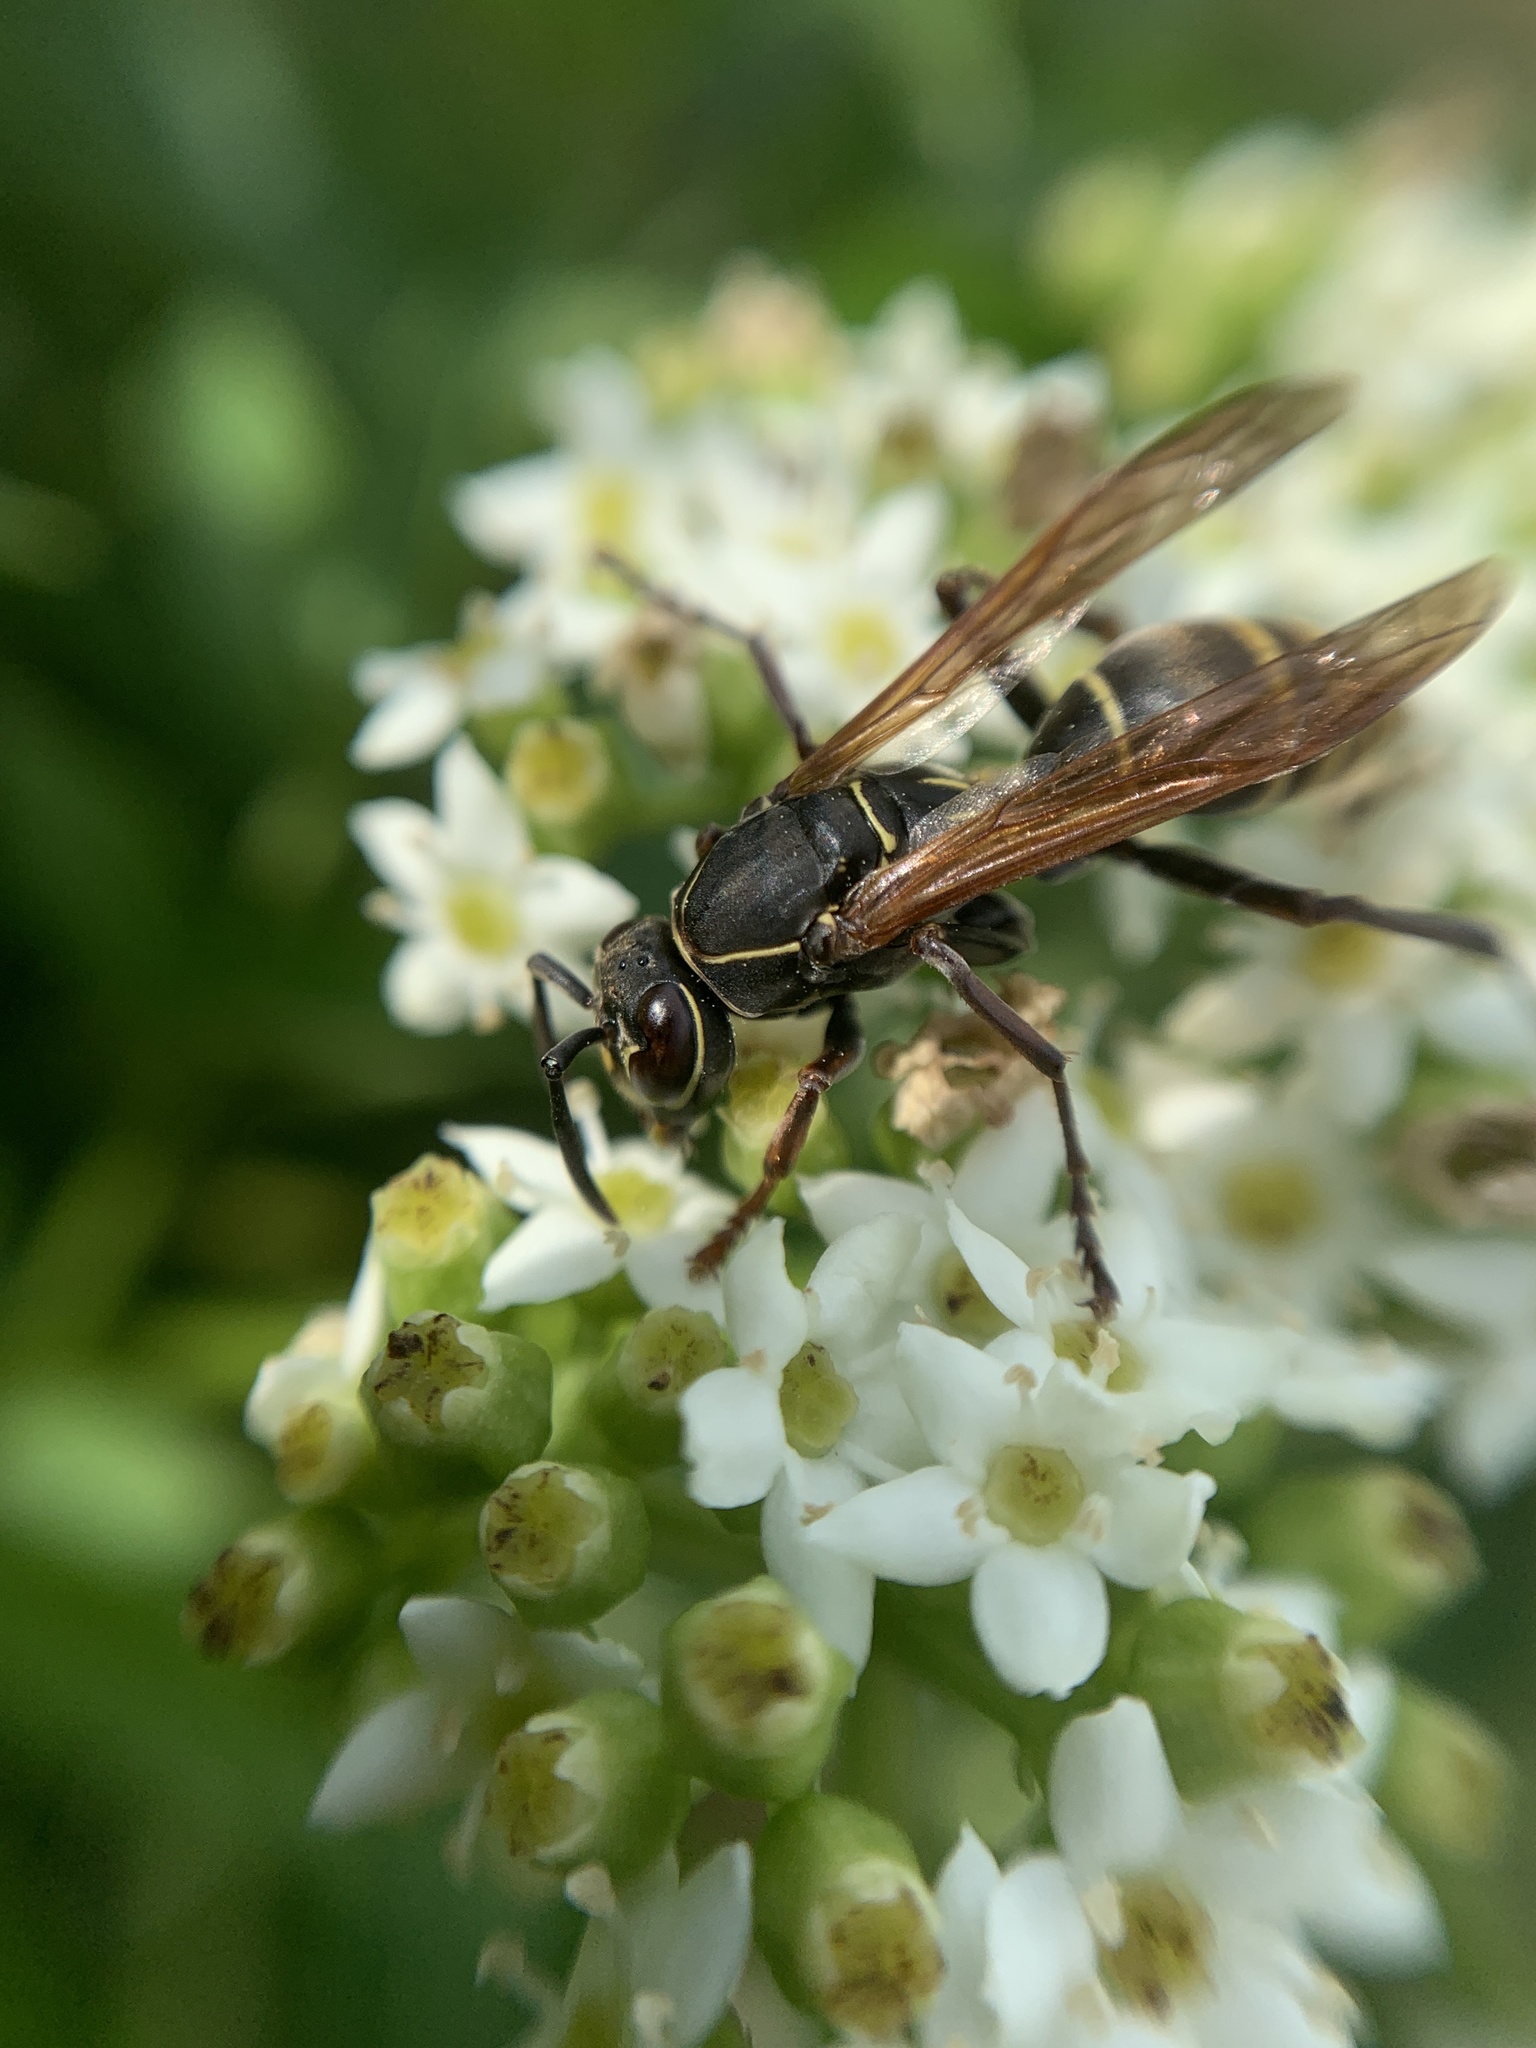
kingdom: Animalia
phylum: Arthropoda
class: Insecta
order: Hymenoptera
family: Eumenidae
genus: Polistes
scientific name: Polistes cinerascens
